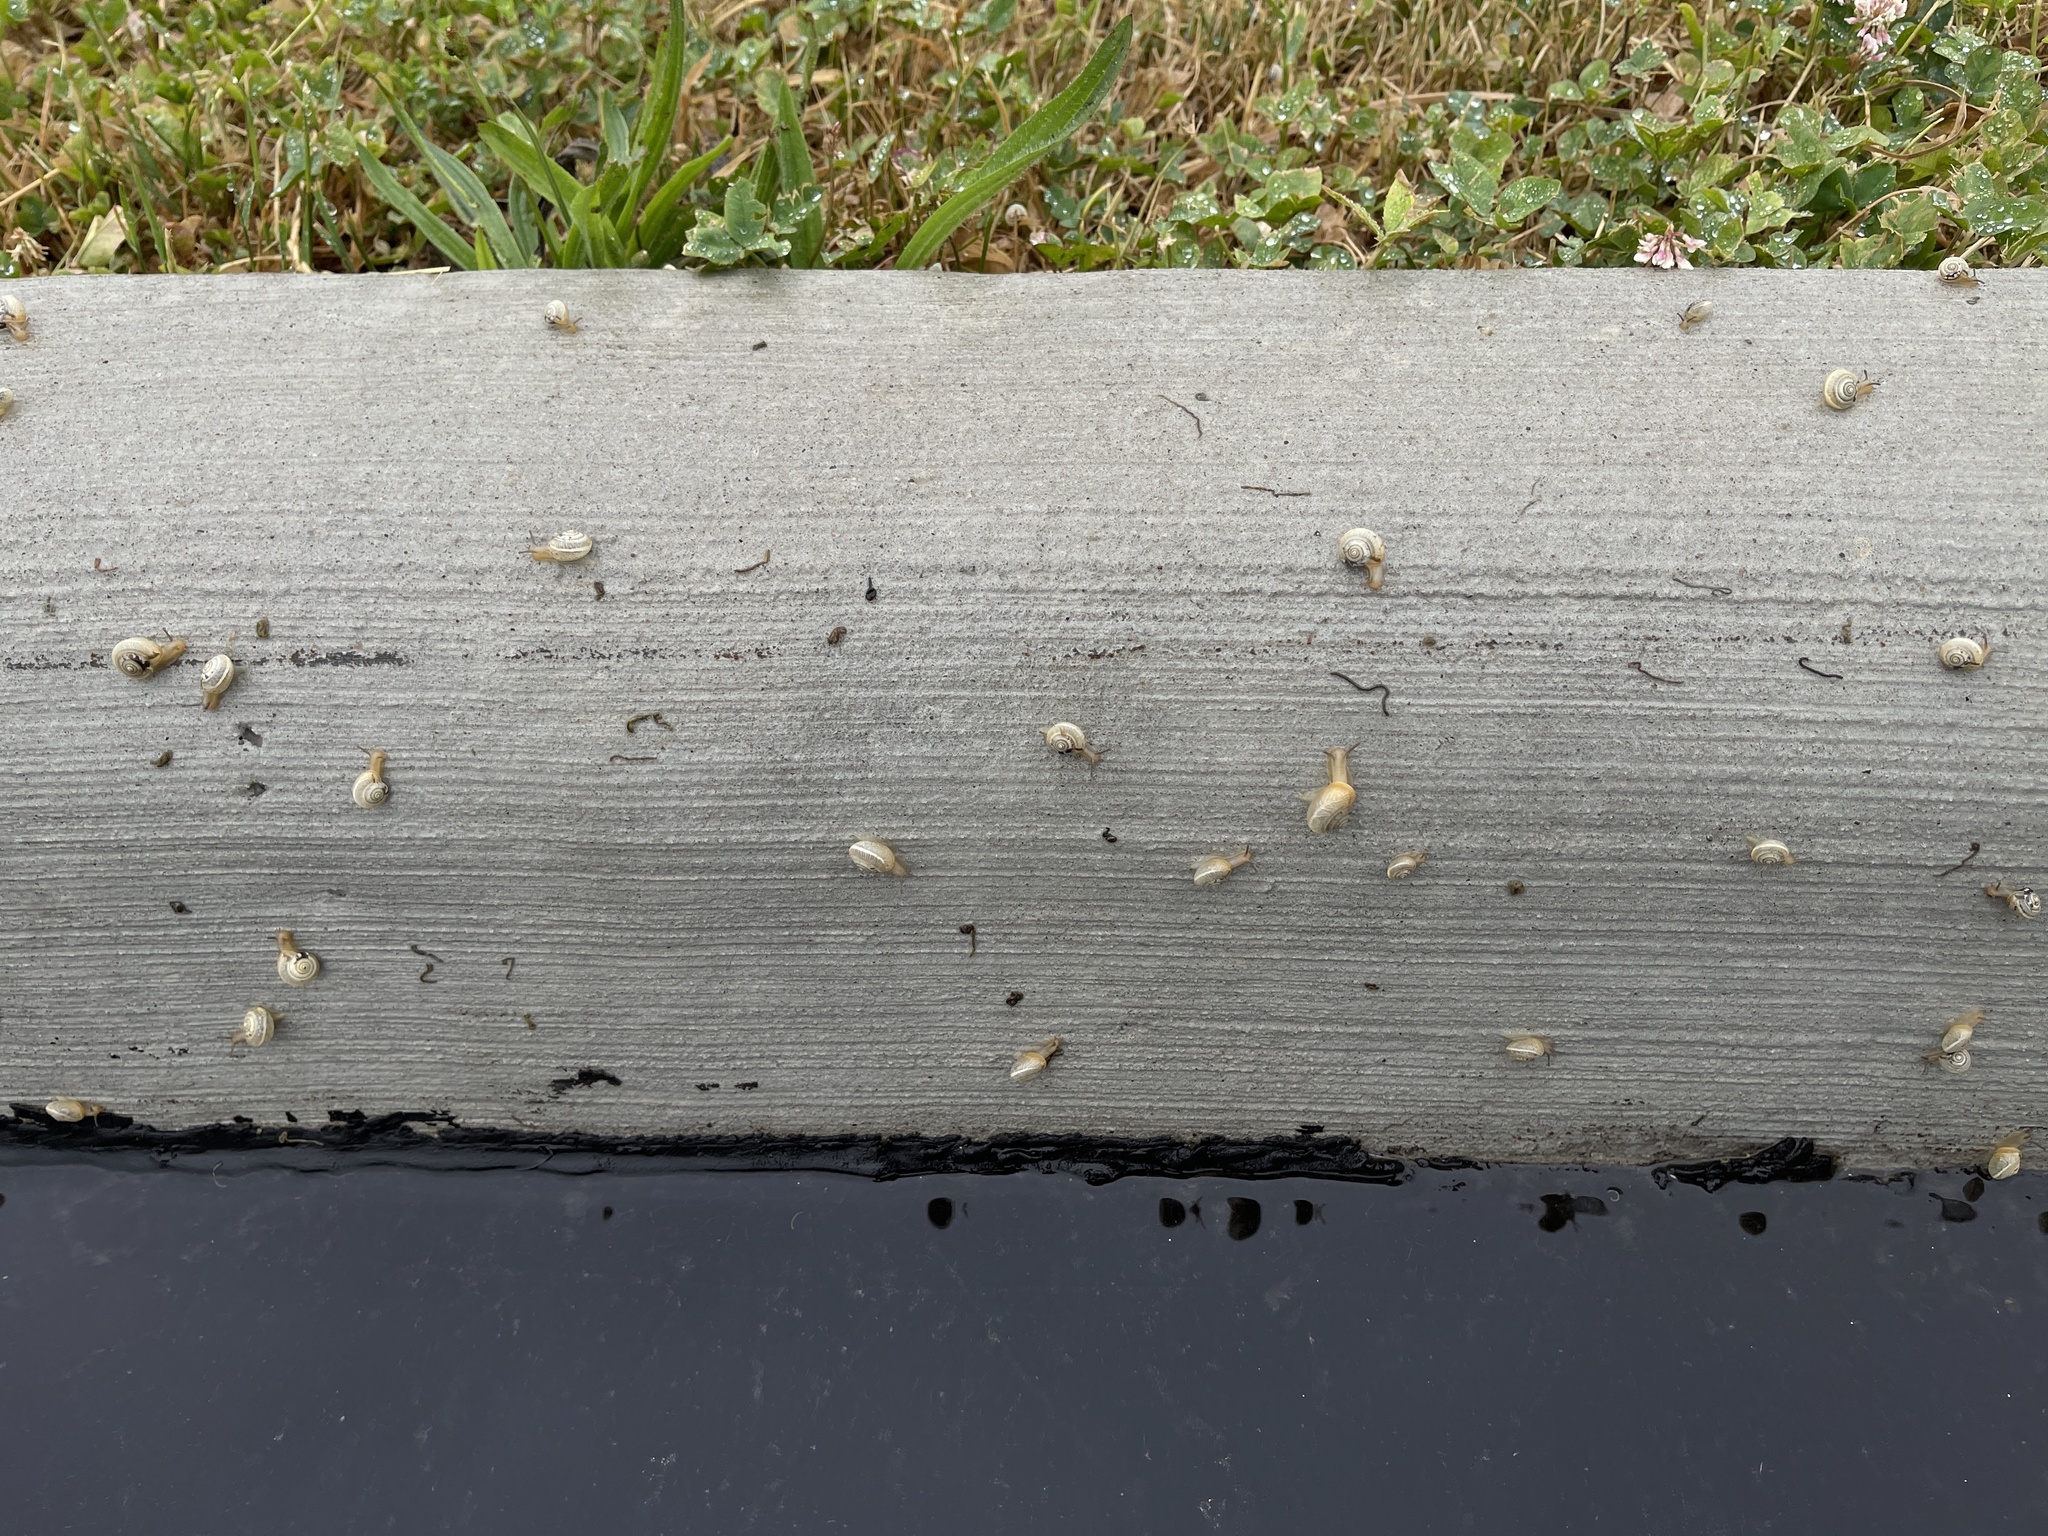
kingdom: Animalia
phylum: Mollusca
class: Gastropoda
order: Stylommatophora
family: Hygromiidae
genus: Monacha
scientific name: Monacha cartusiana
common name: Carthusian snail
